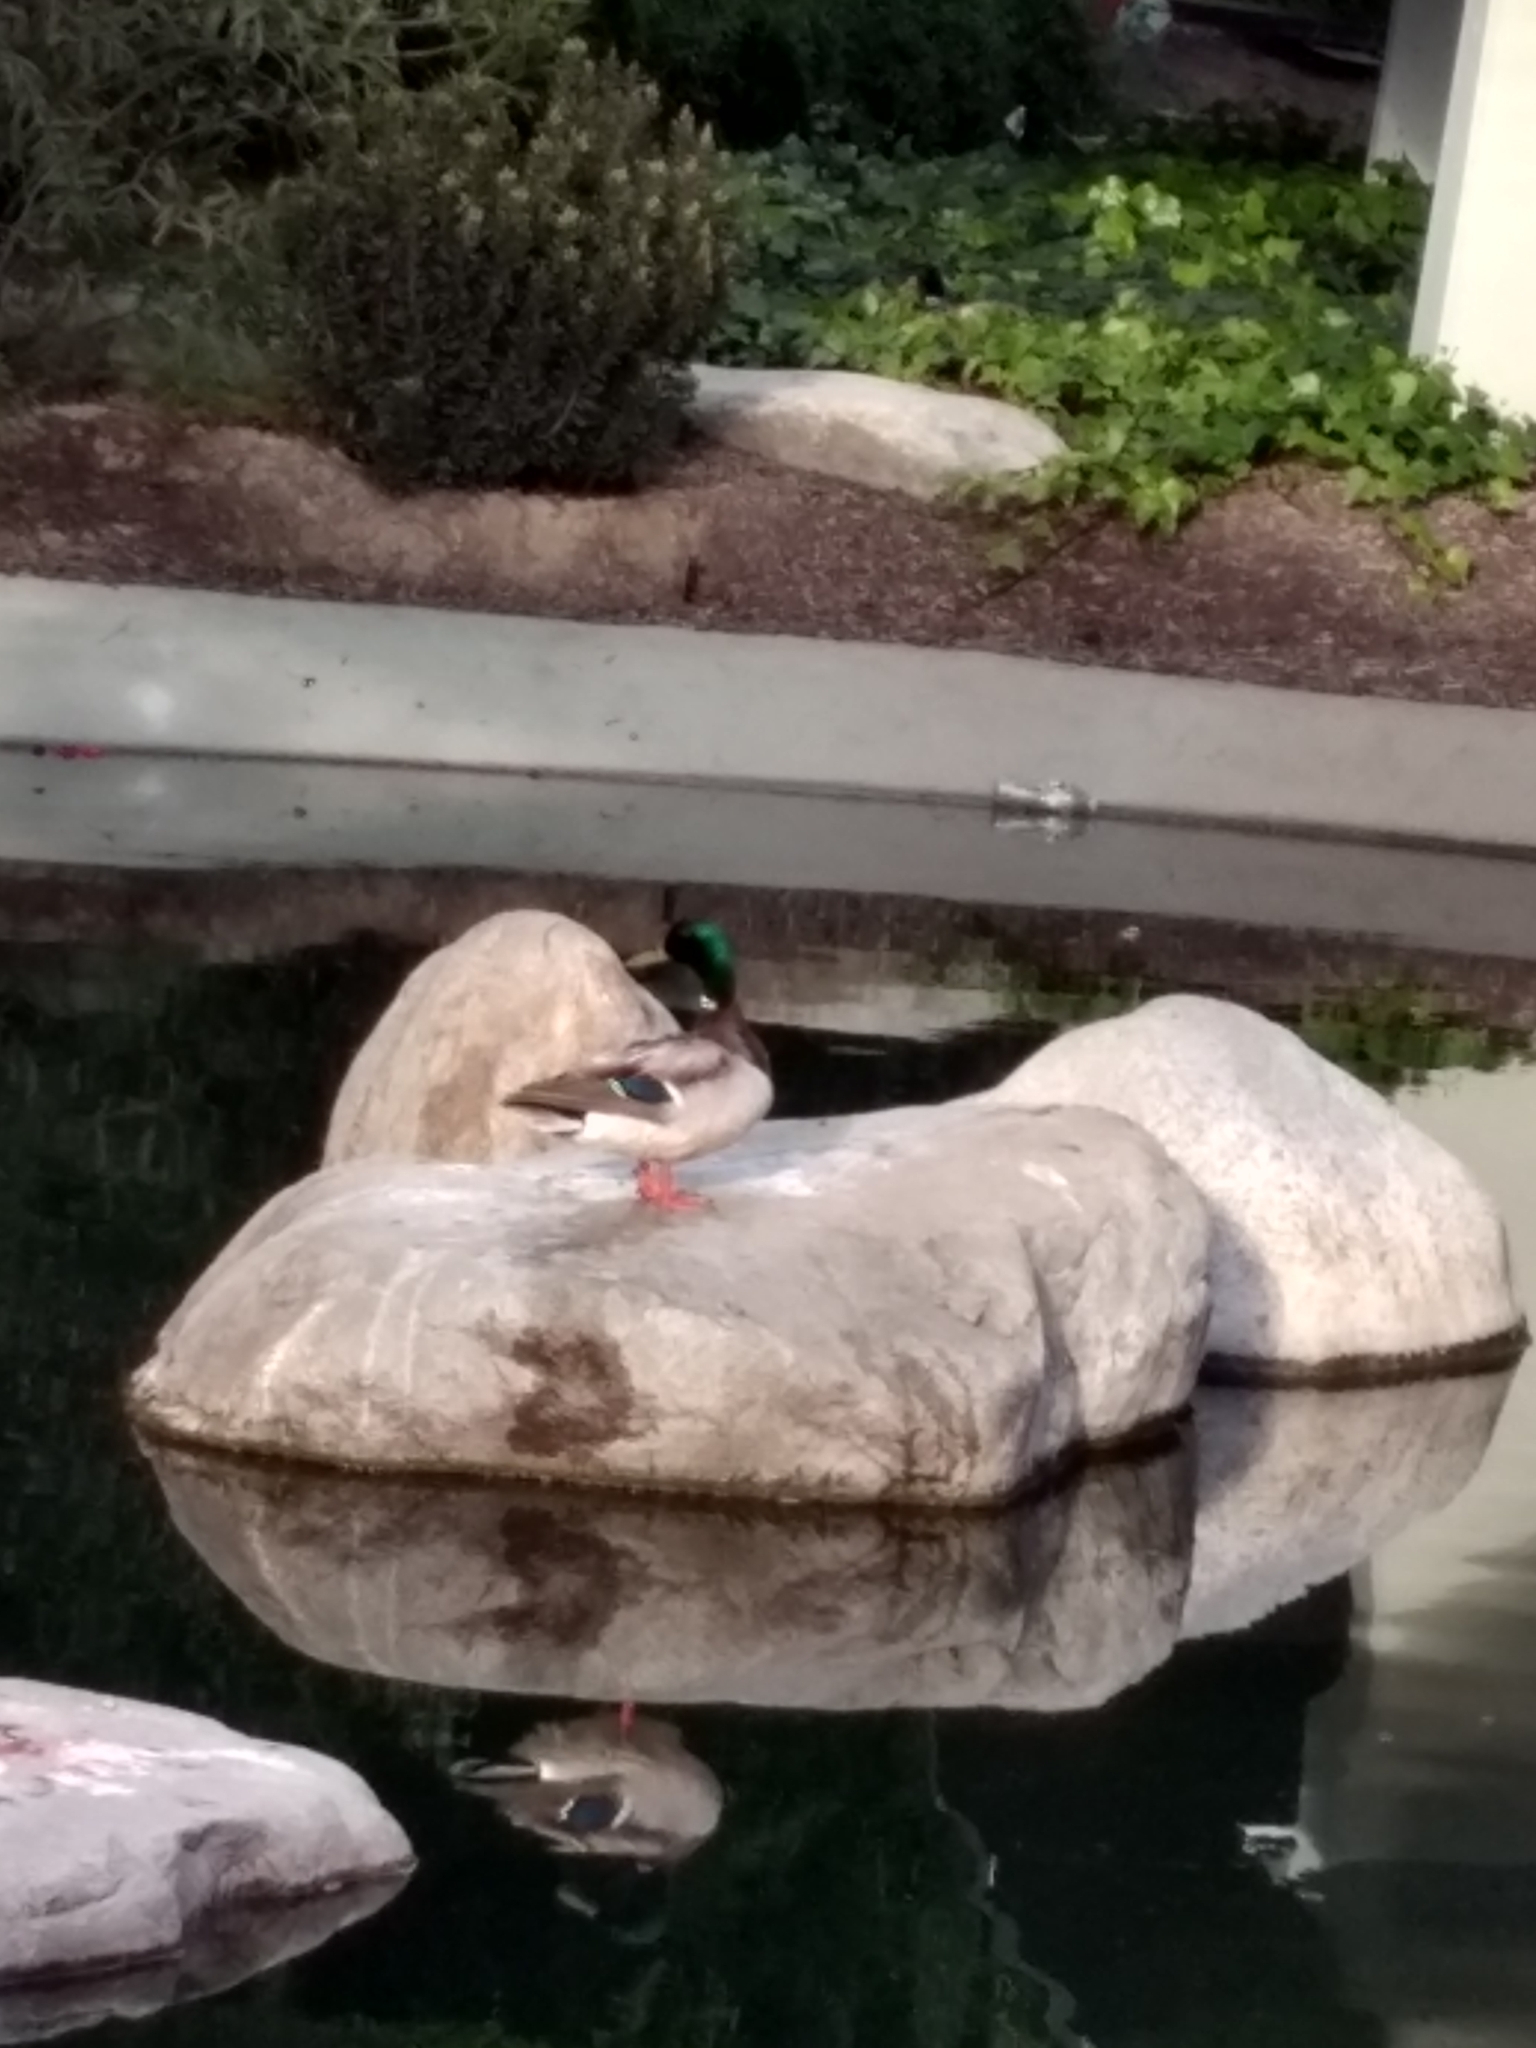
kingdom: Animalia
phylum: Chordata
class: Aves
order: Anseriformes
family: Anatidae
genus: Anas
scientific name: Anas platyrhynchos
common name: Mallard
